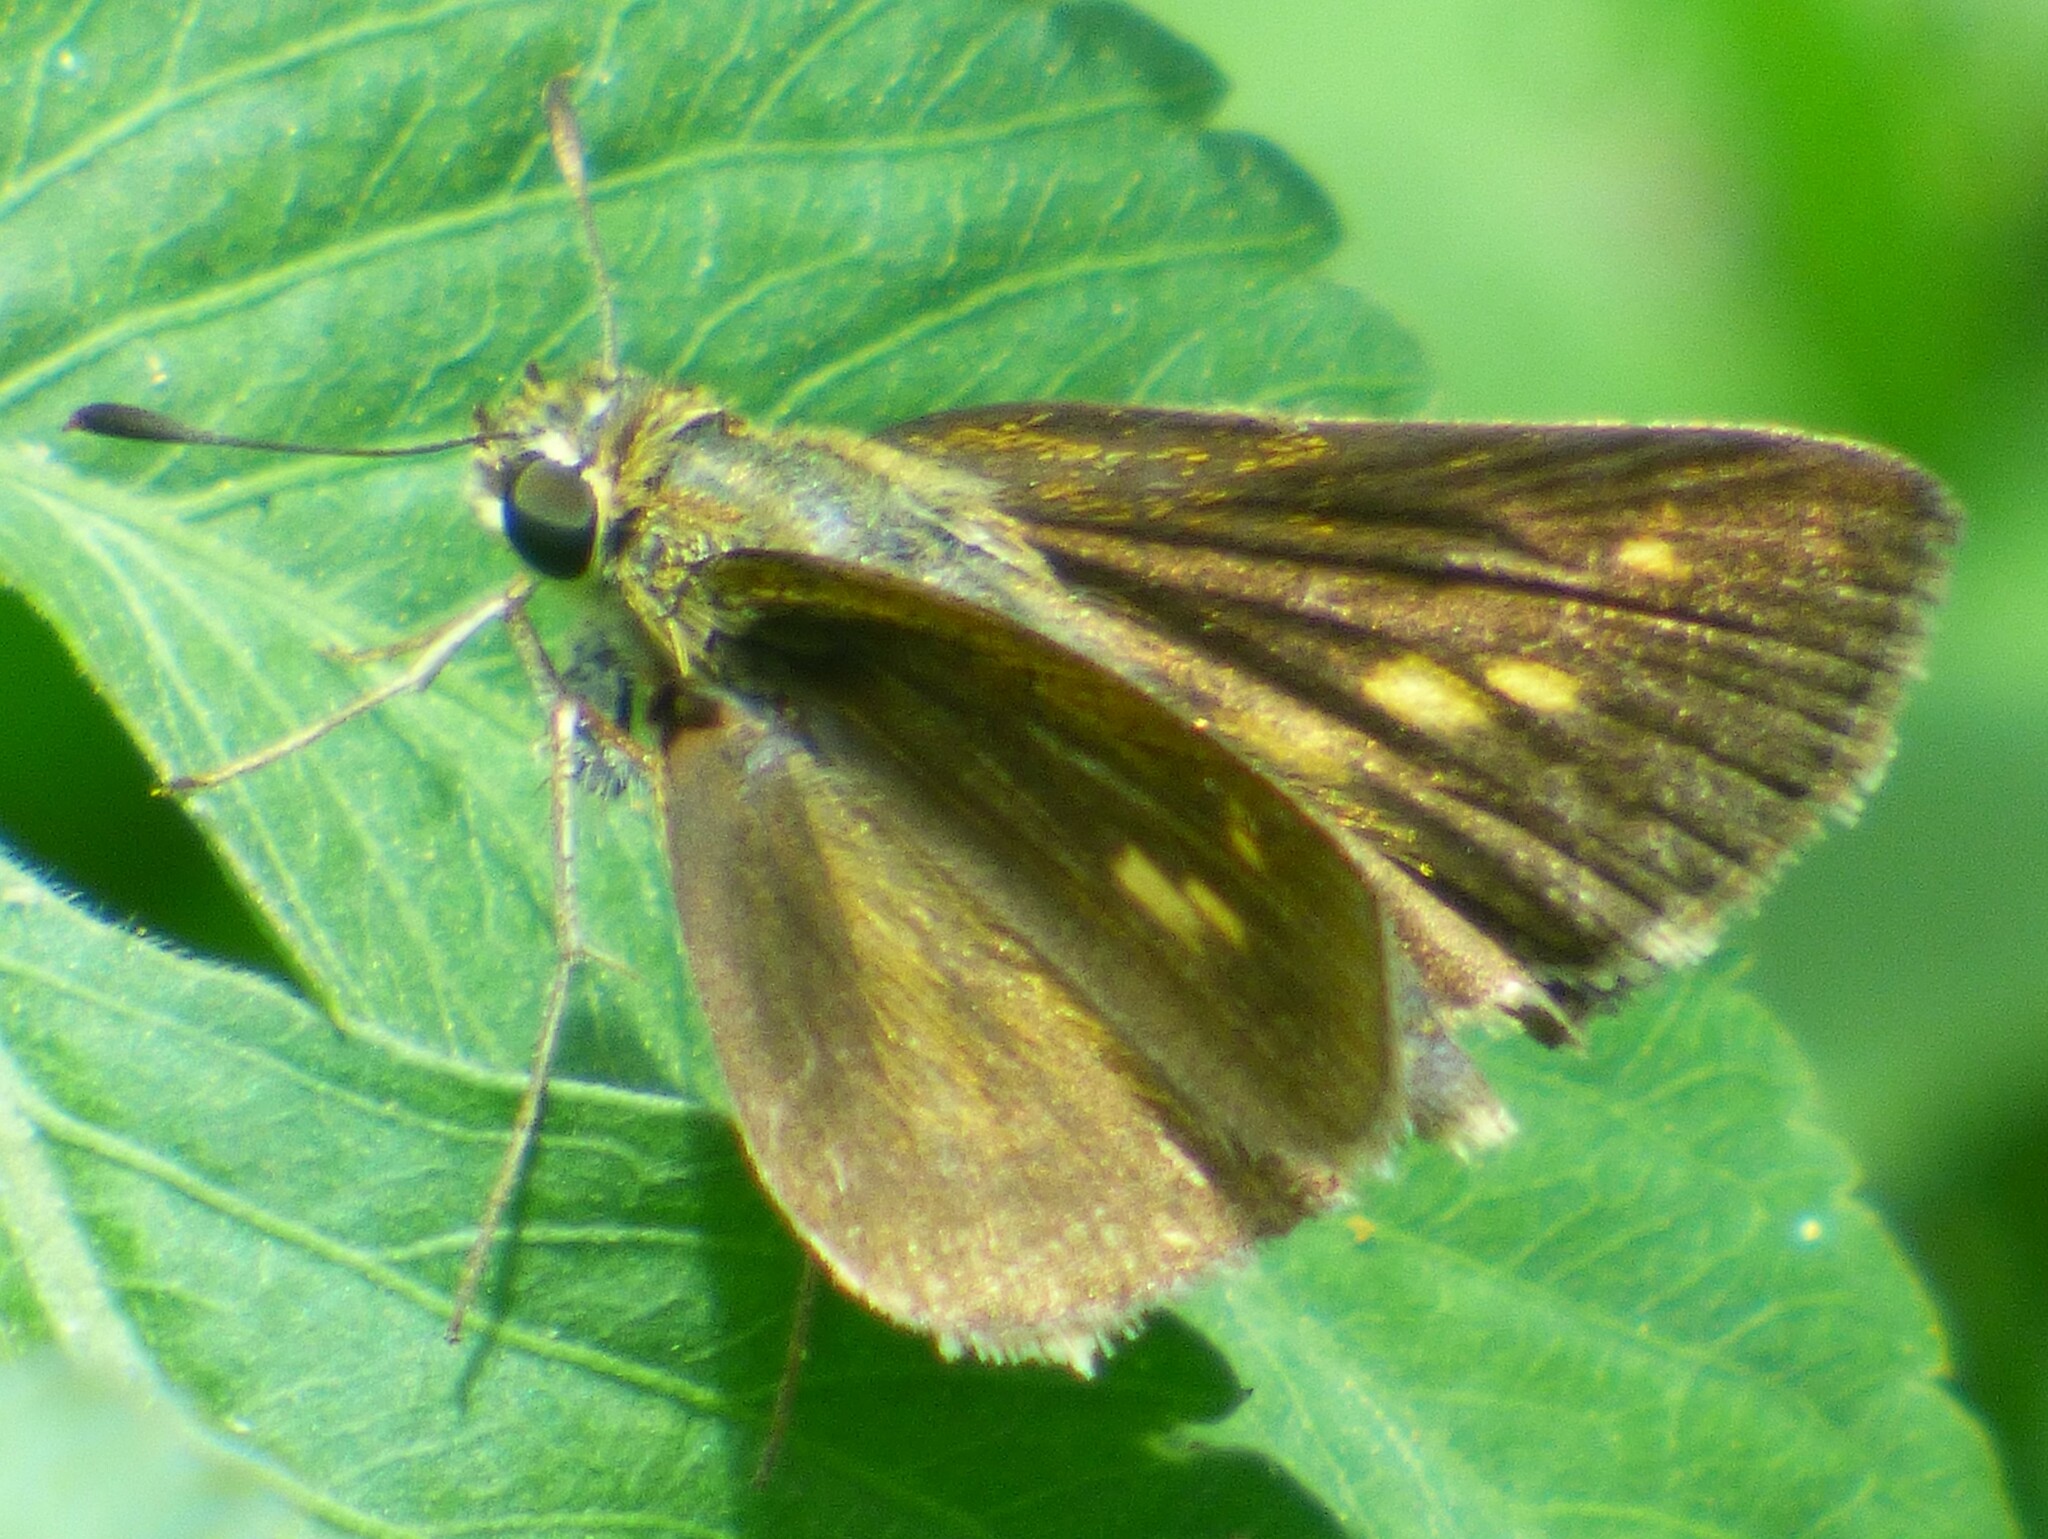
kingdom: Animalia
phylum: Arthropoda
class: Insecta
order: Lepidoptera
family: Hesperiidae
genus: Polites
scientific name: Polites vibex
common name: Whirlabout
